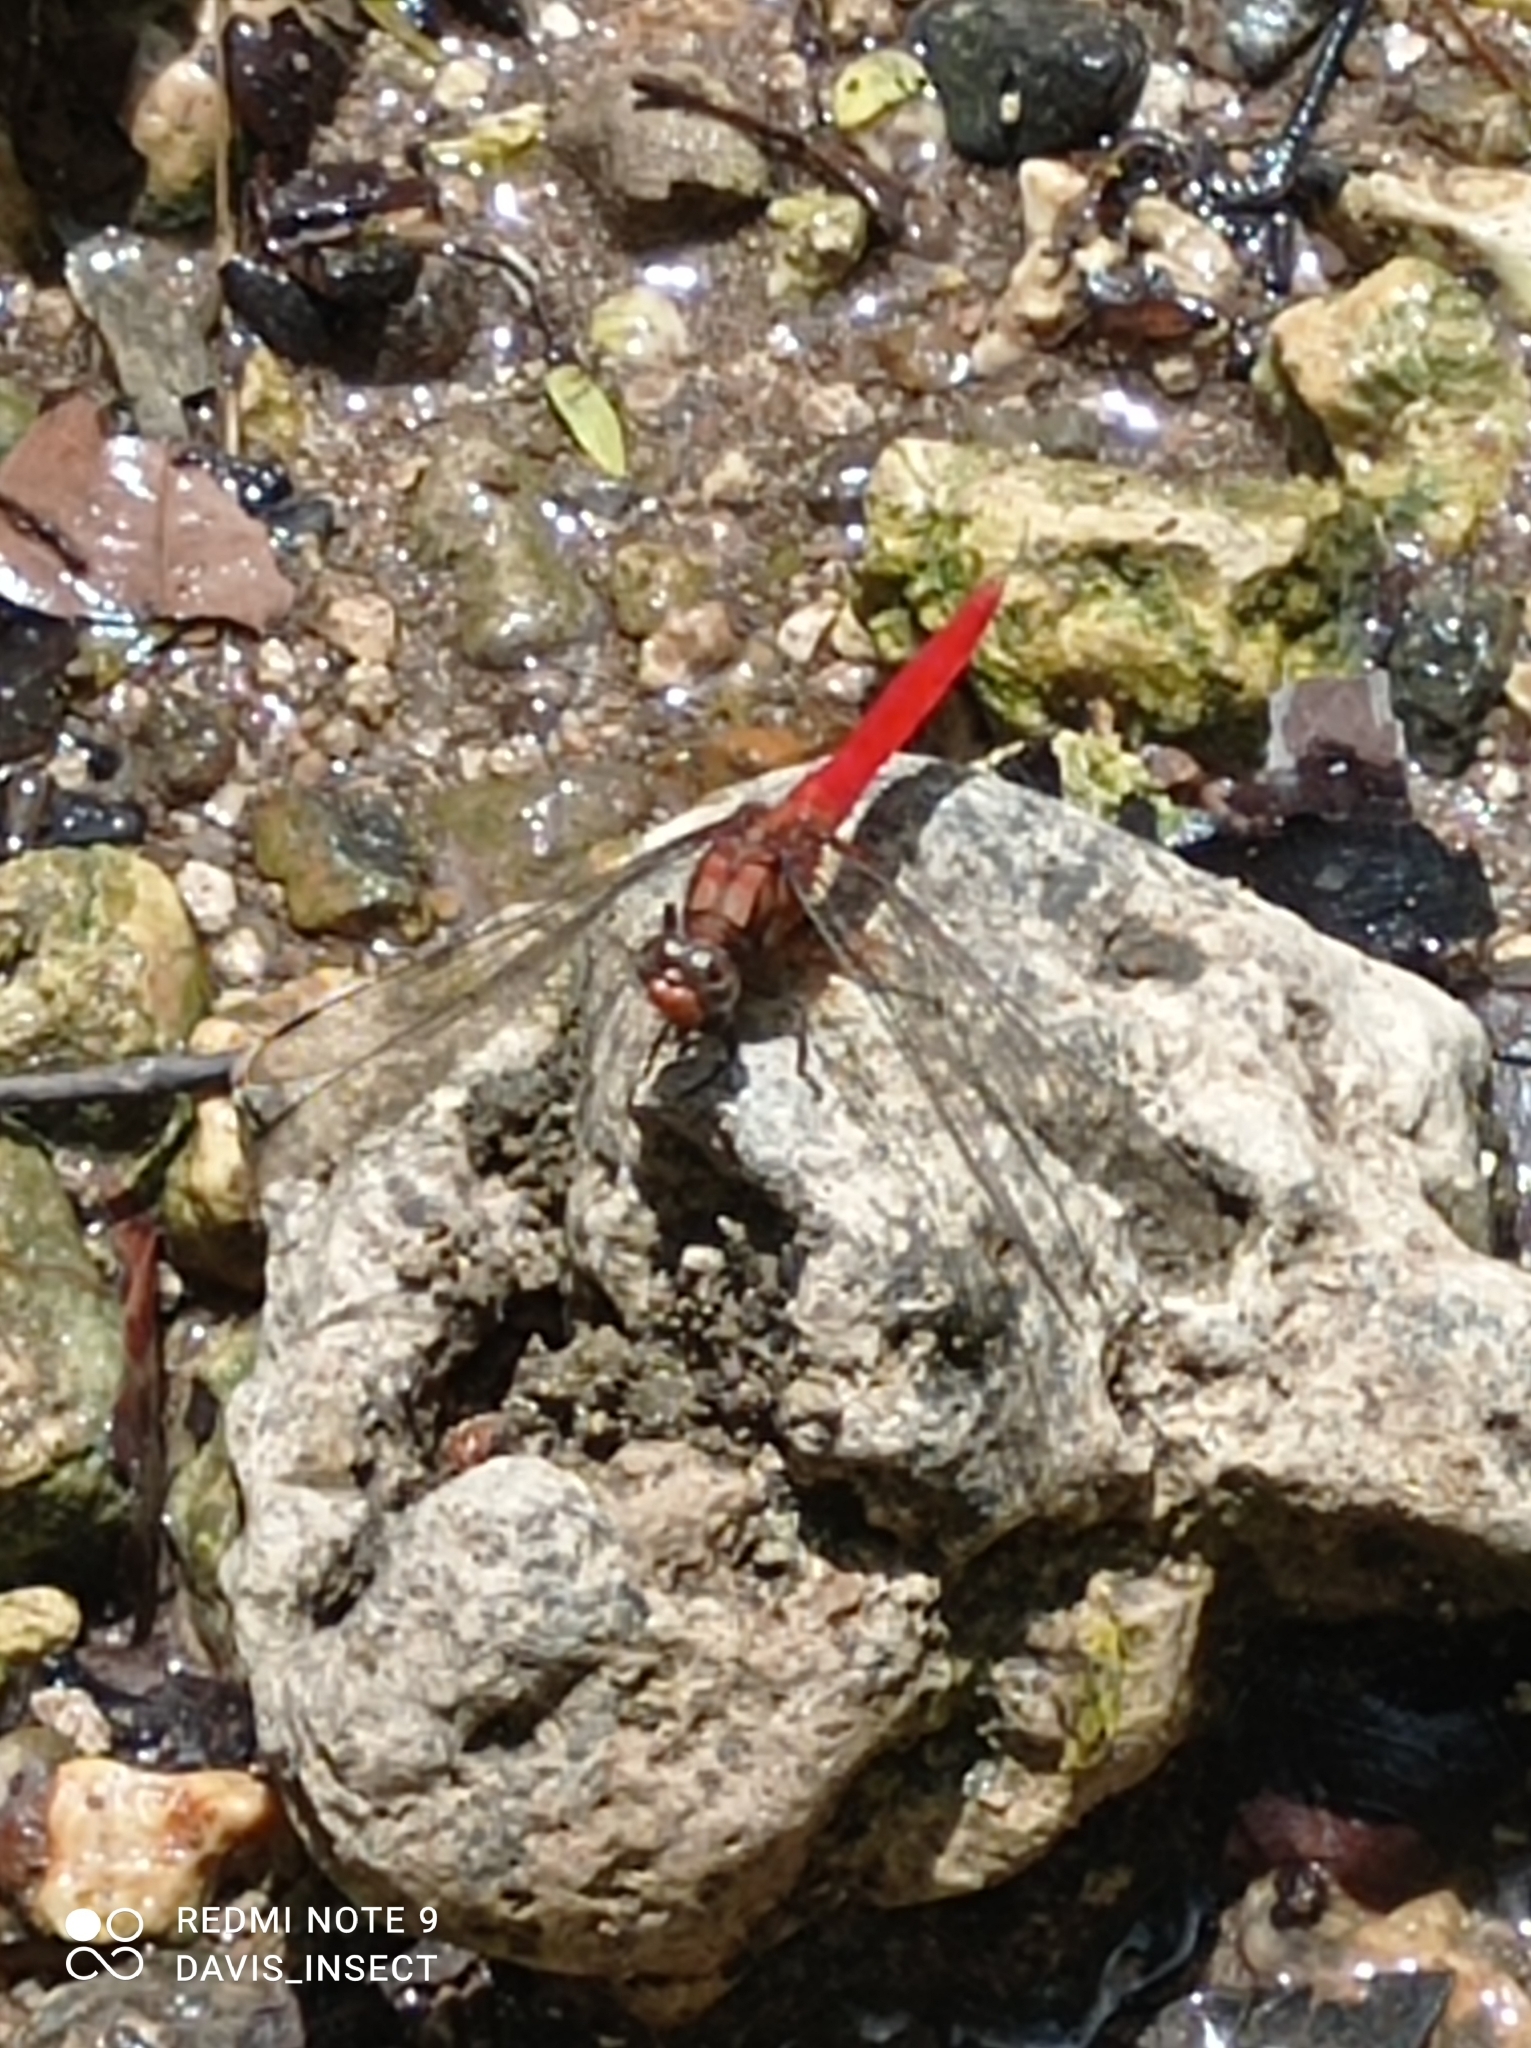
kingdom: Animalia
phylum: Arthropoda
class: Insecta
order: Odonata
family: Libellulidae
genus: Orthetrum
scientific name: Orthetrum testaceum
